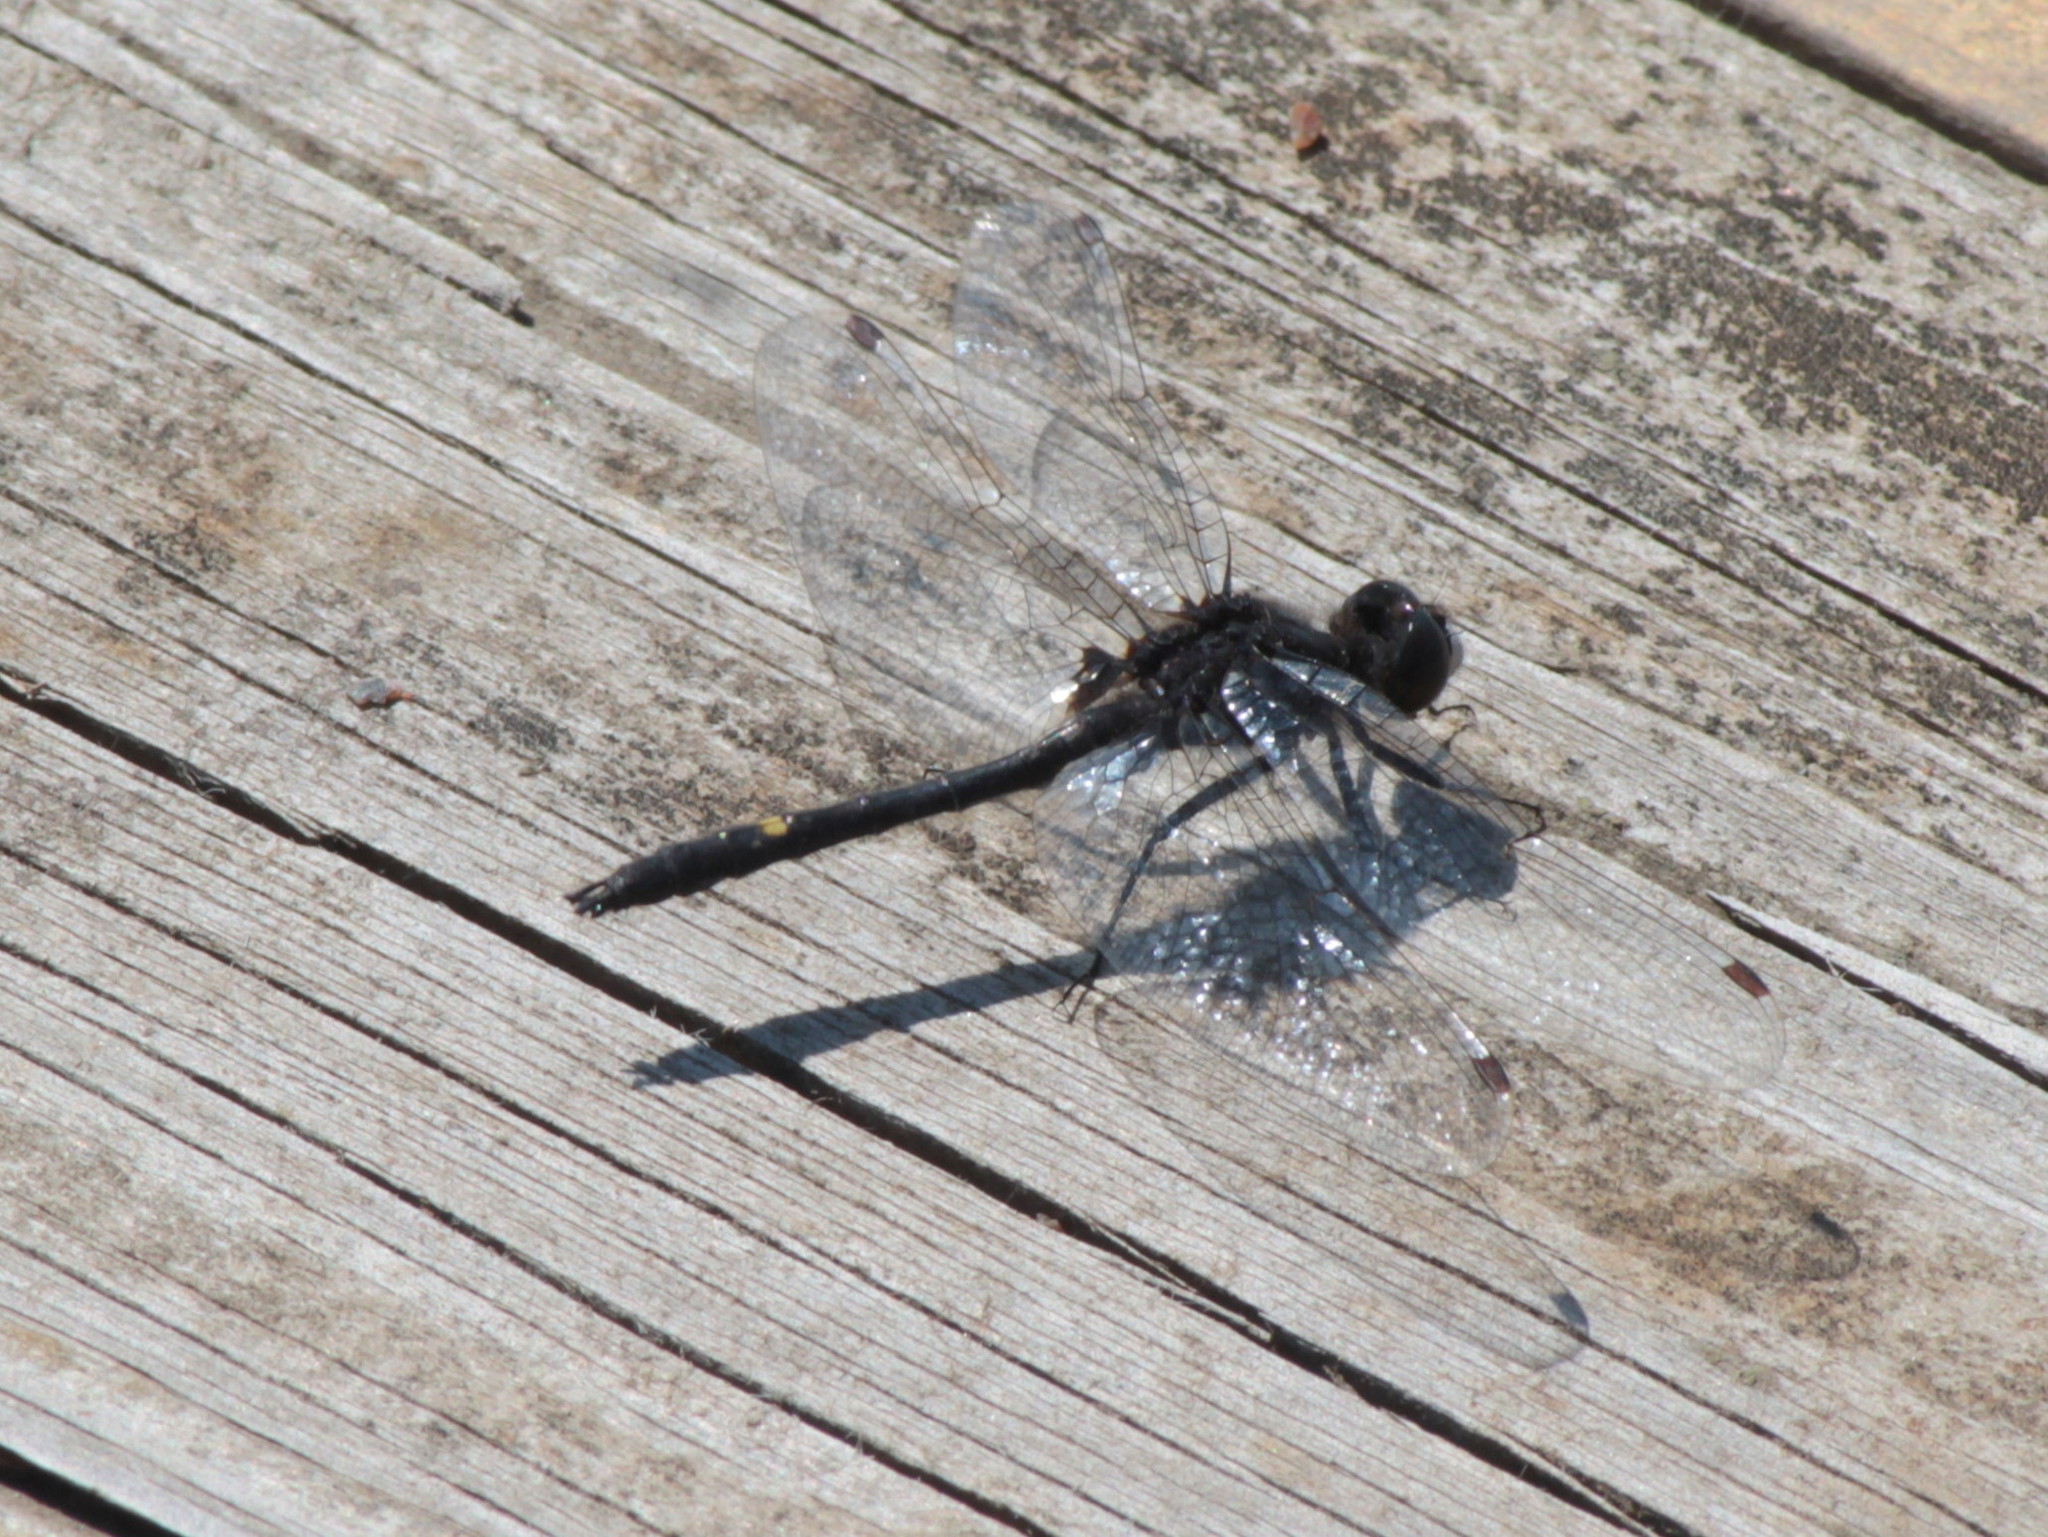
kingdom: Animalia
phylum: Arthropoda
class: Insecta
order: Odonata
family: Libellulidae
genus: Leucorrhinia
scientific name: Leucorrhinia intacta
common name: Dot-tailed whiteface
